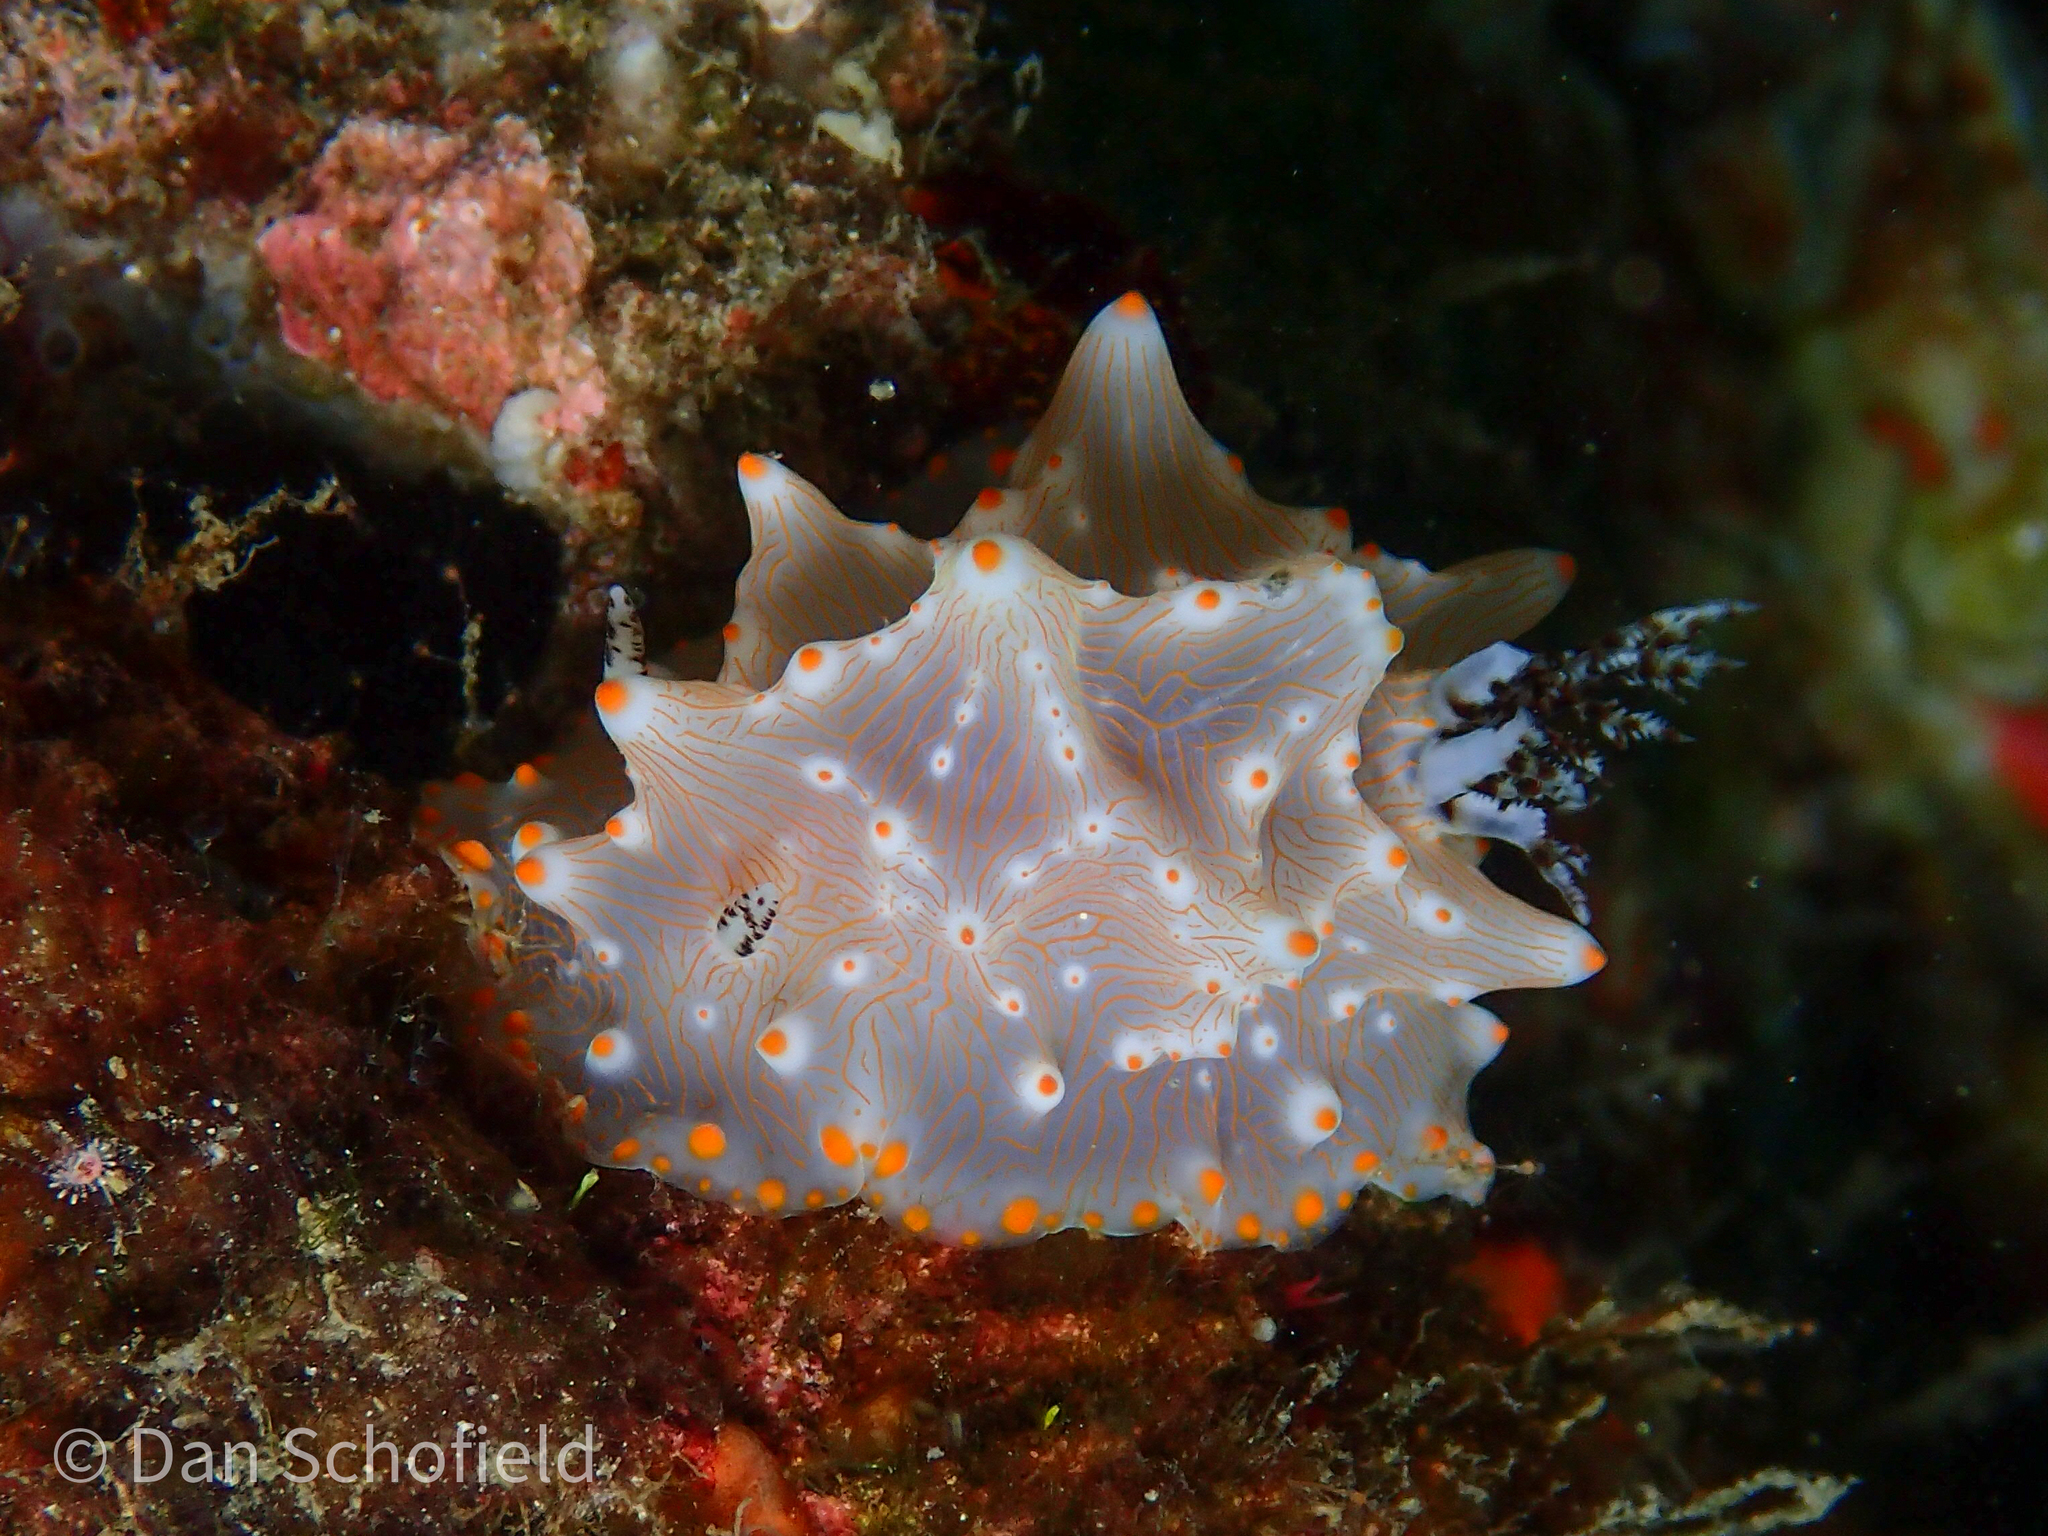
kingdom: Animalia
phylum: Mollusca
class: Gastropoda
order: Nudibranchia
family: Discodorididae
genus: Halgerda
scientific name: Halgerda batangas
